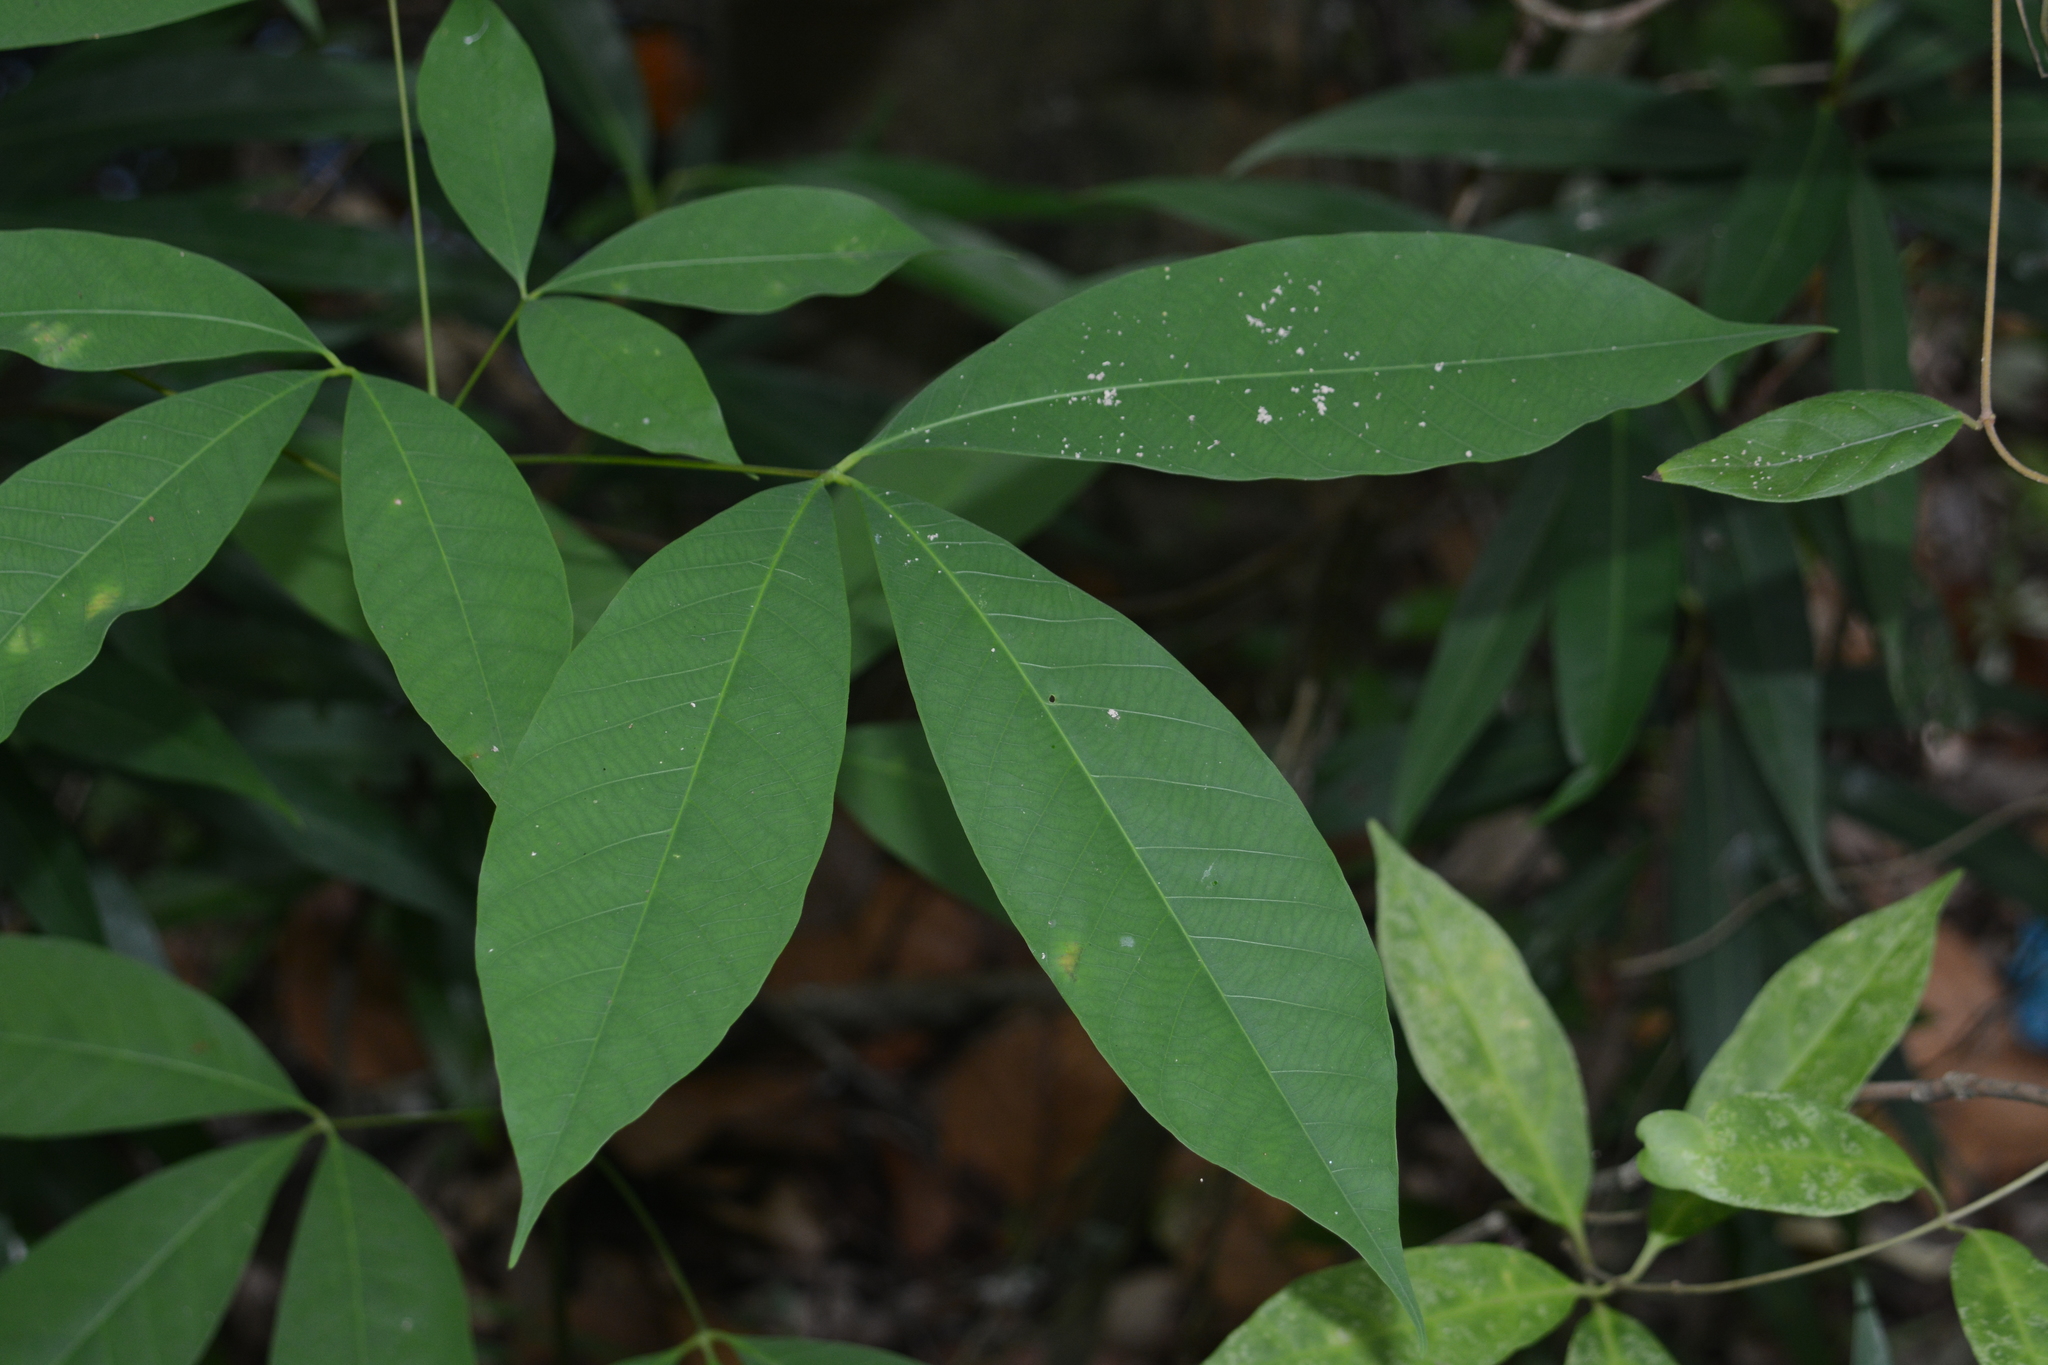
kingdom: Plantae
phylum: Tracheophyta
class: Magnoliopsida
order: Malpighiales
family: Euphorbiaceae
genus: Hevea
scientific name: Hevea brasiliensis
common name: Natural rubber
